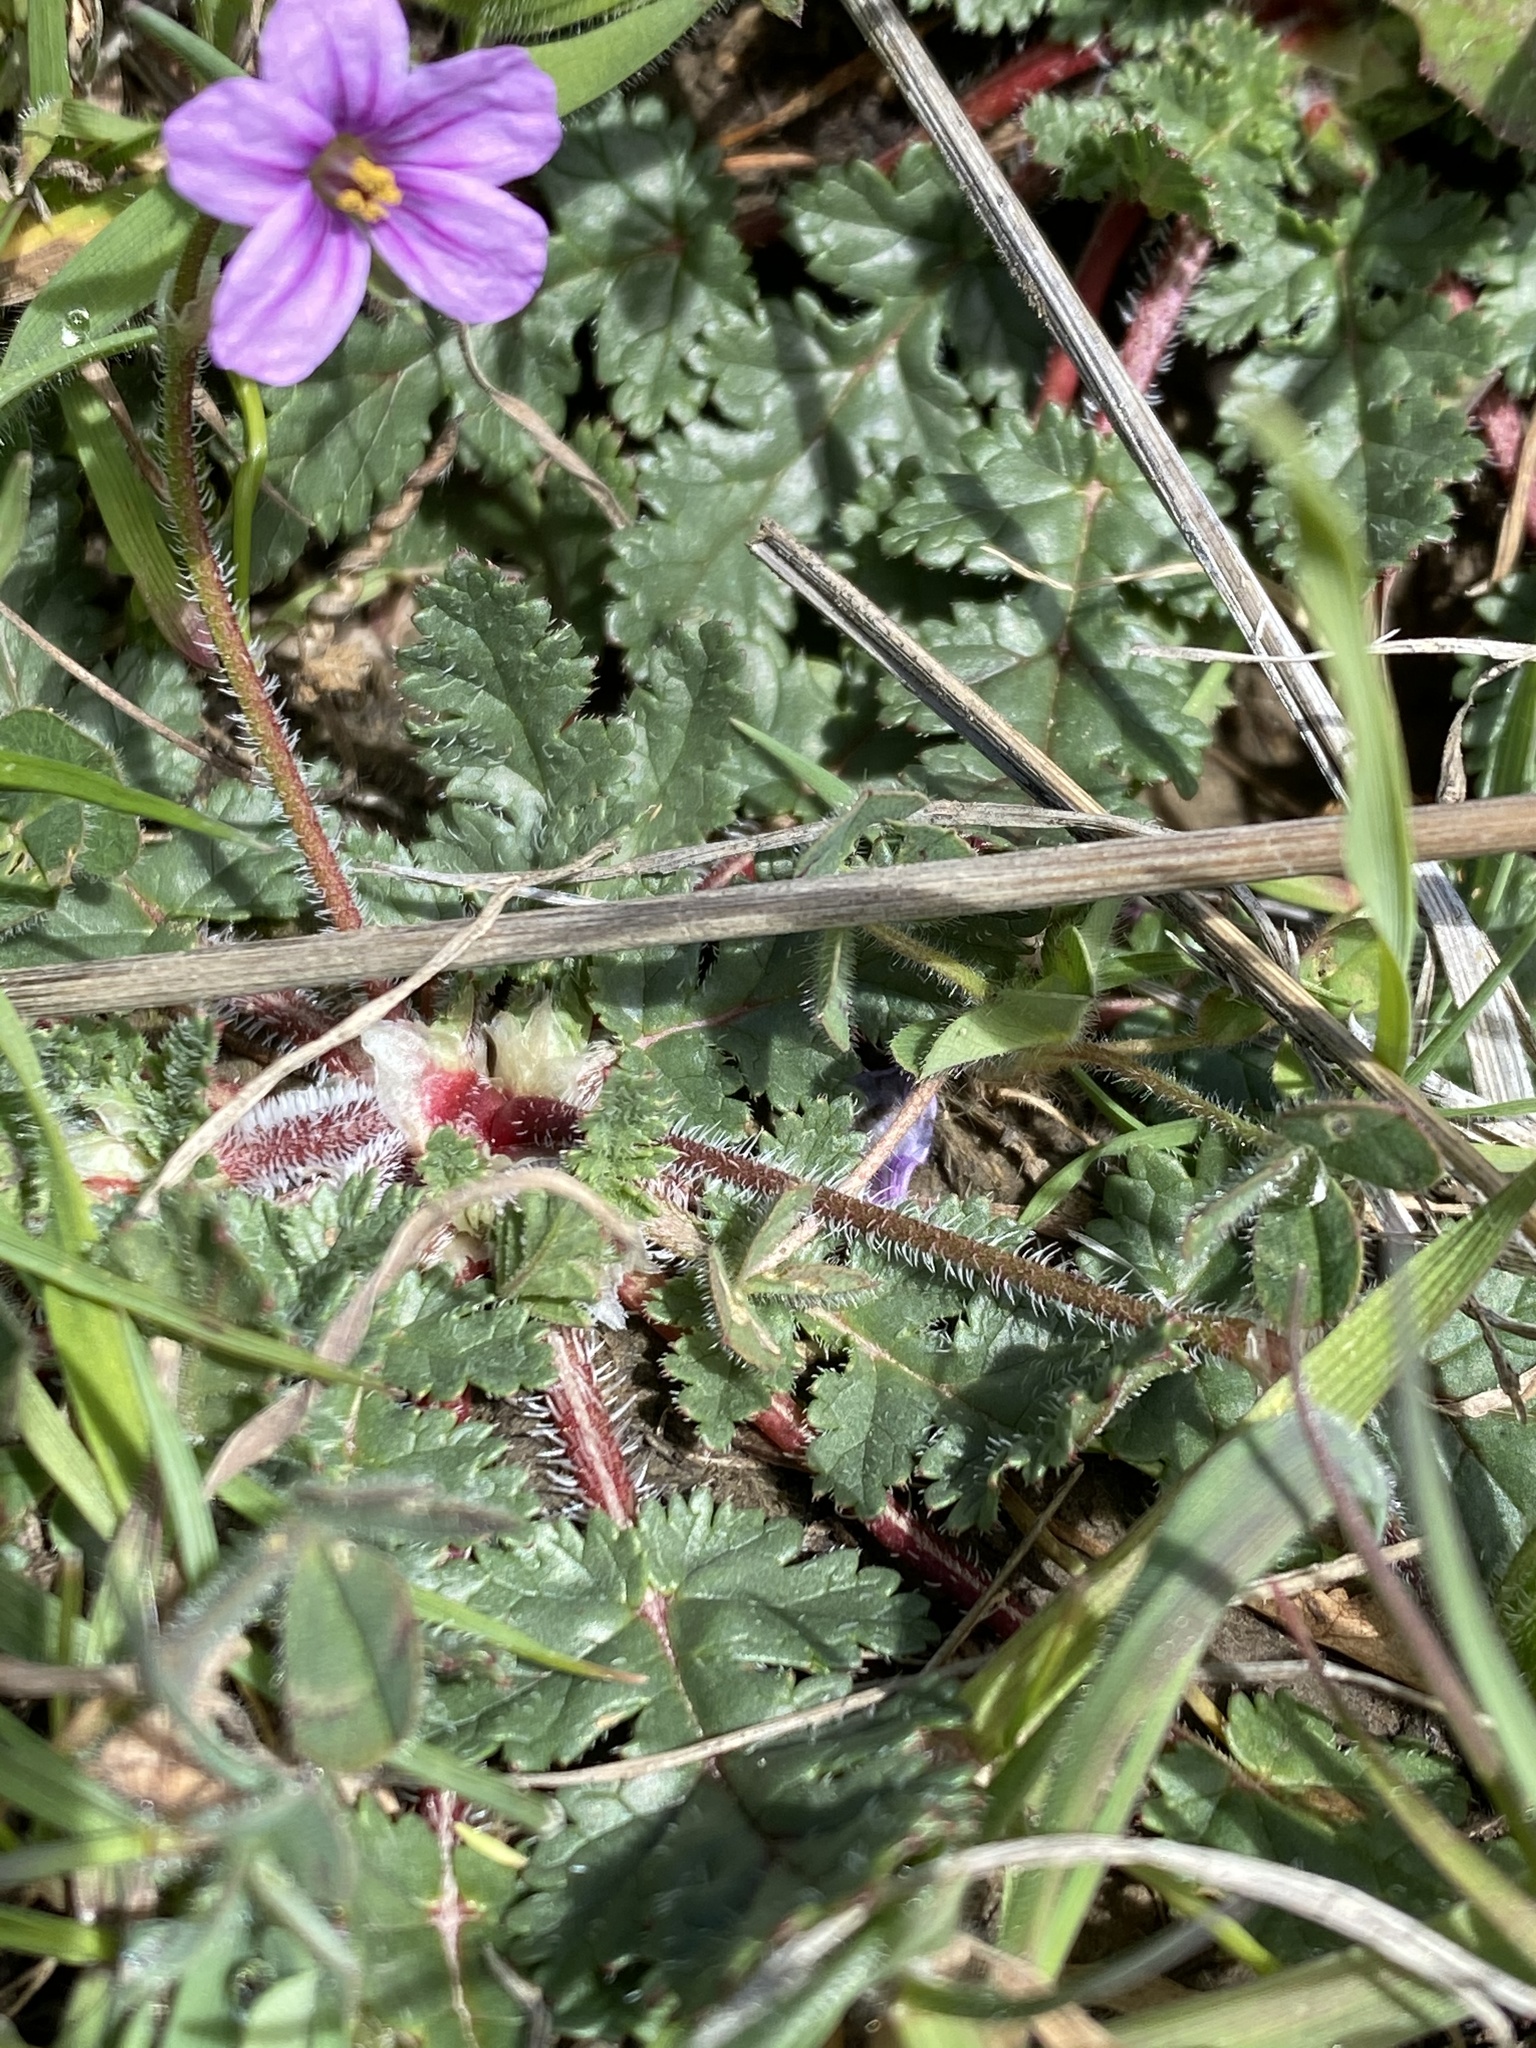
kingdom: Plantae
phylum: Tracheophyta
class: Magnoliopsida
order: Geraniales
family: Geraniaceae
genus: Erodium
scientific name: Erodium botrys
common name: Mediterranean stork's-bill
